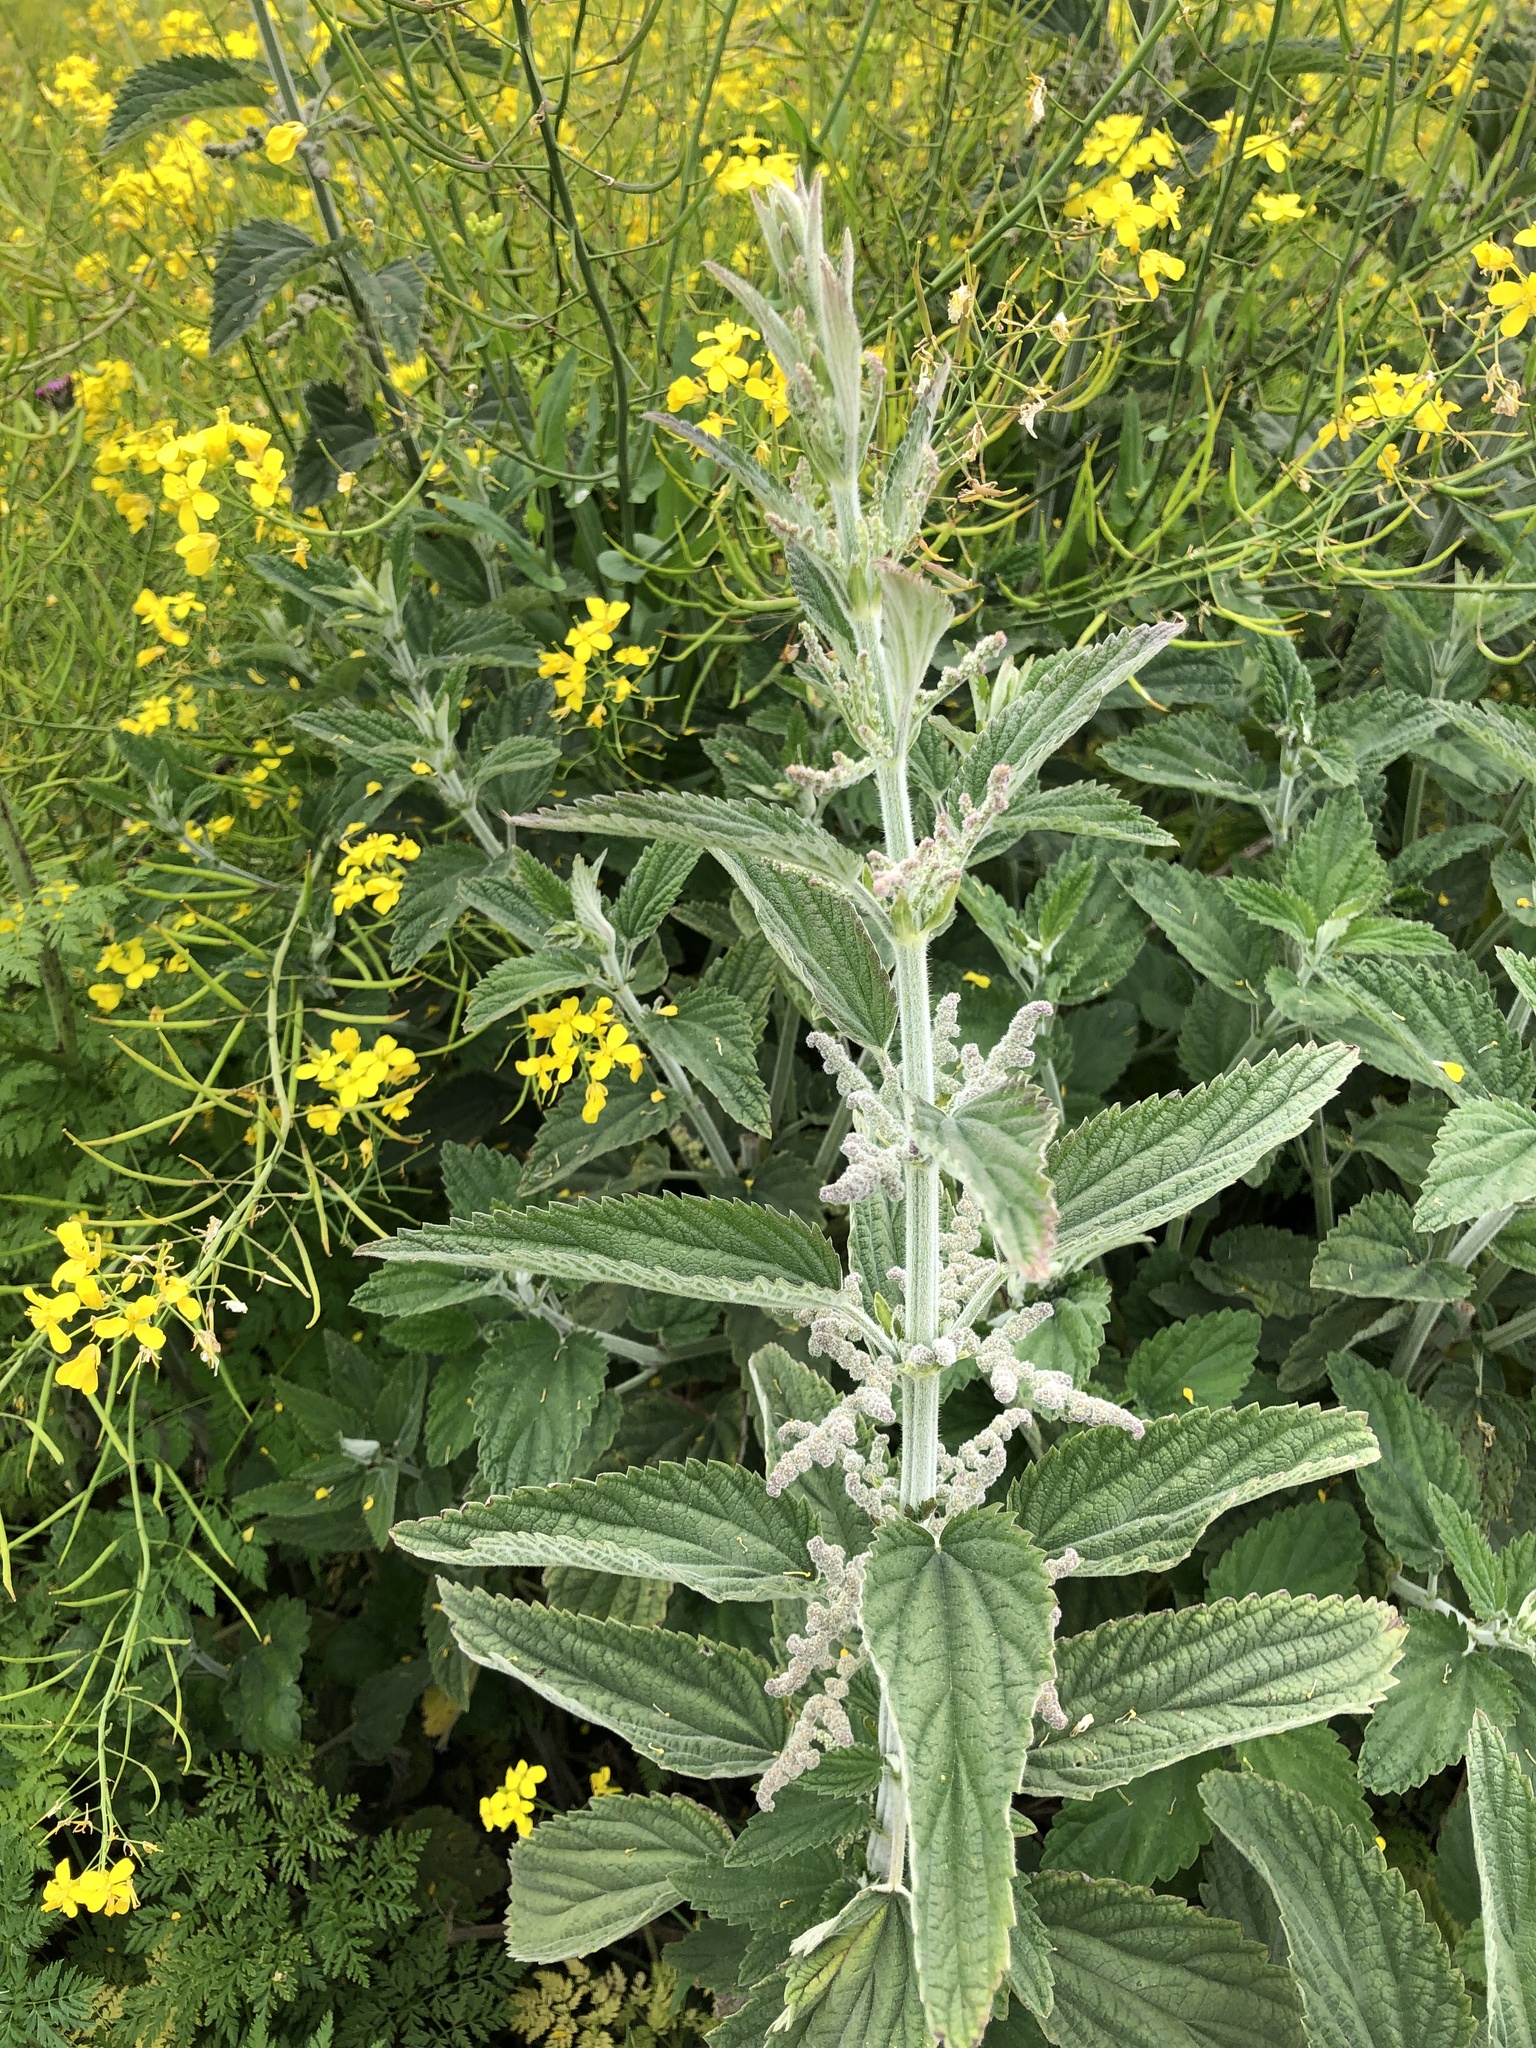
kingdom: Plantae
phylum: Tracheophyta
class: Magnoliopsida
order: Rosales
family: Urticaceae
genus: Urtica
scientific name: Urtica dioica
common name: Common nettle
